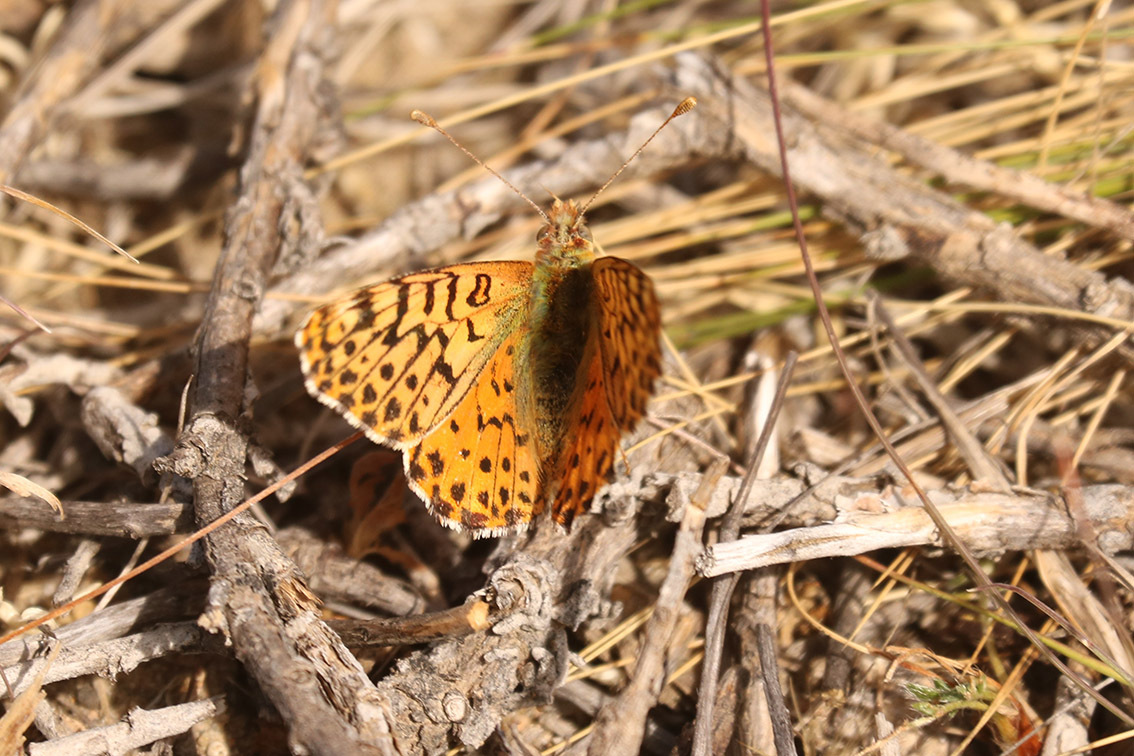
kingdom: Animalia
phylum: Arthropoda
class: Insecta
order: Lepidoptera
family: Nymphalidae
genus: Issoria
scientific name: Issoria Yramea lathonoides
